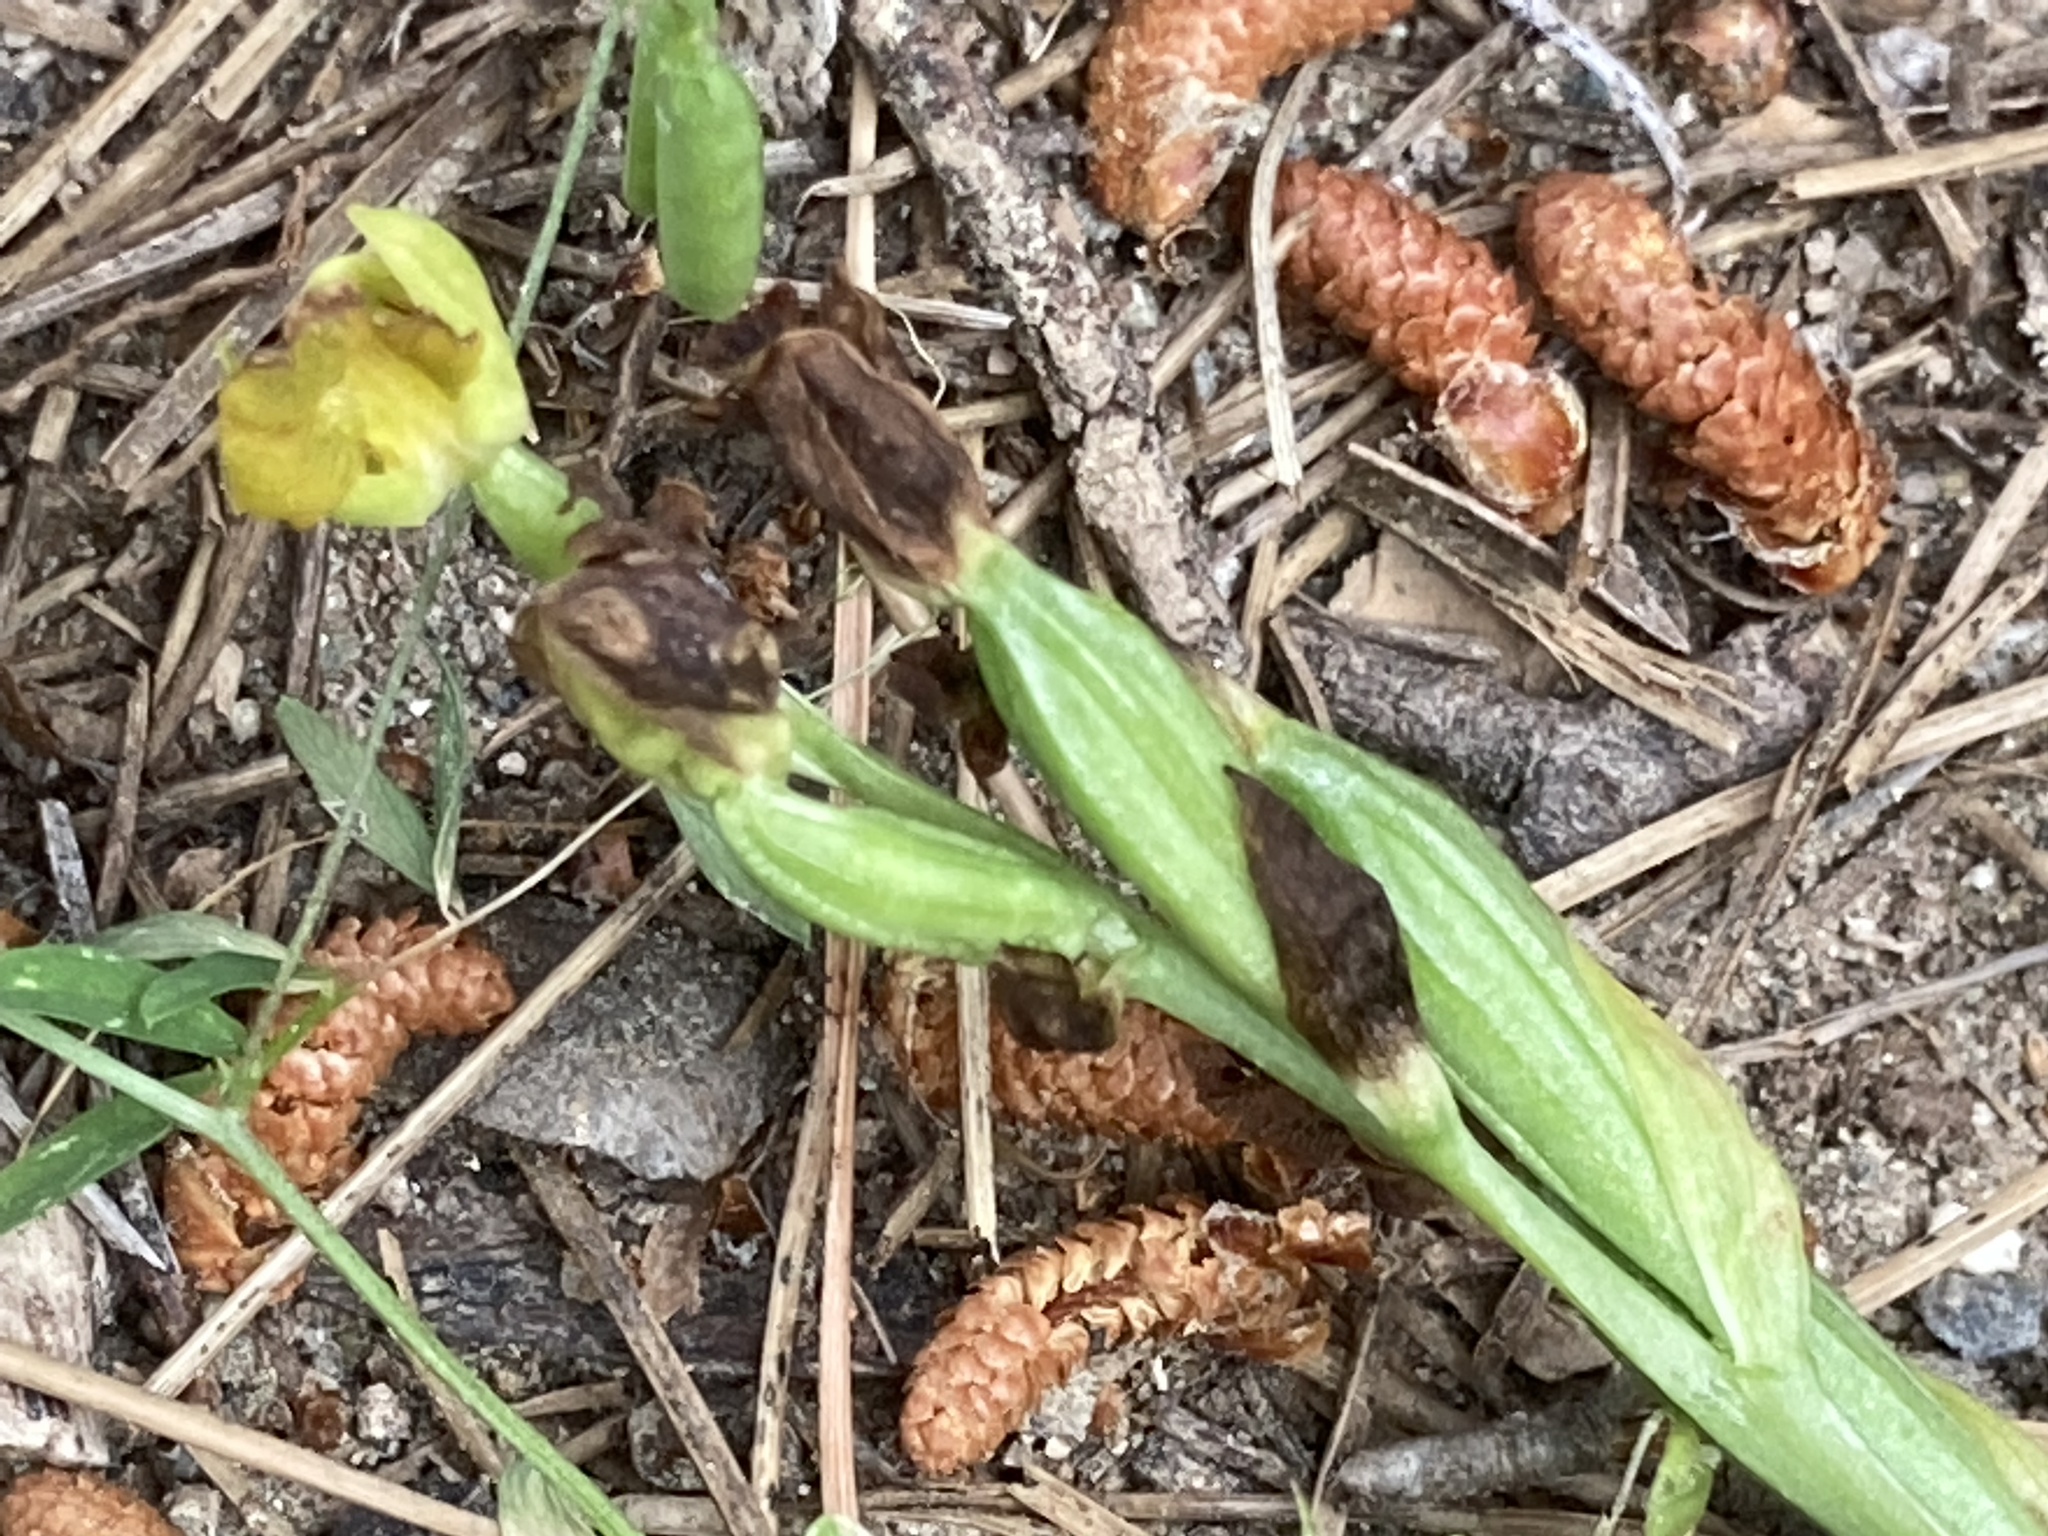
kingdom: Plantae
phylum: Tracheophyta
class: Liliopsida
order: Asparagales
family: Orchidaceae
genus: Ophrys
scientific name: Ophrys
